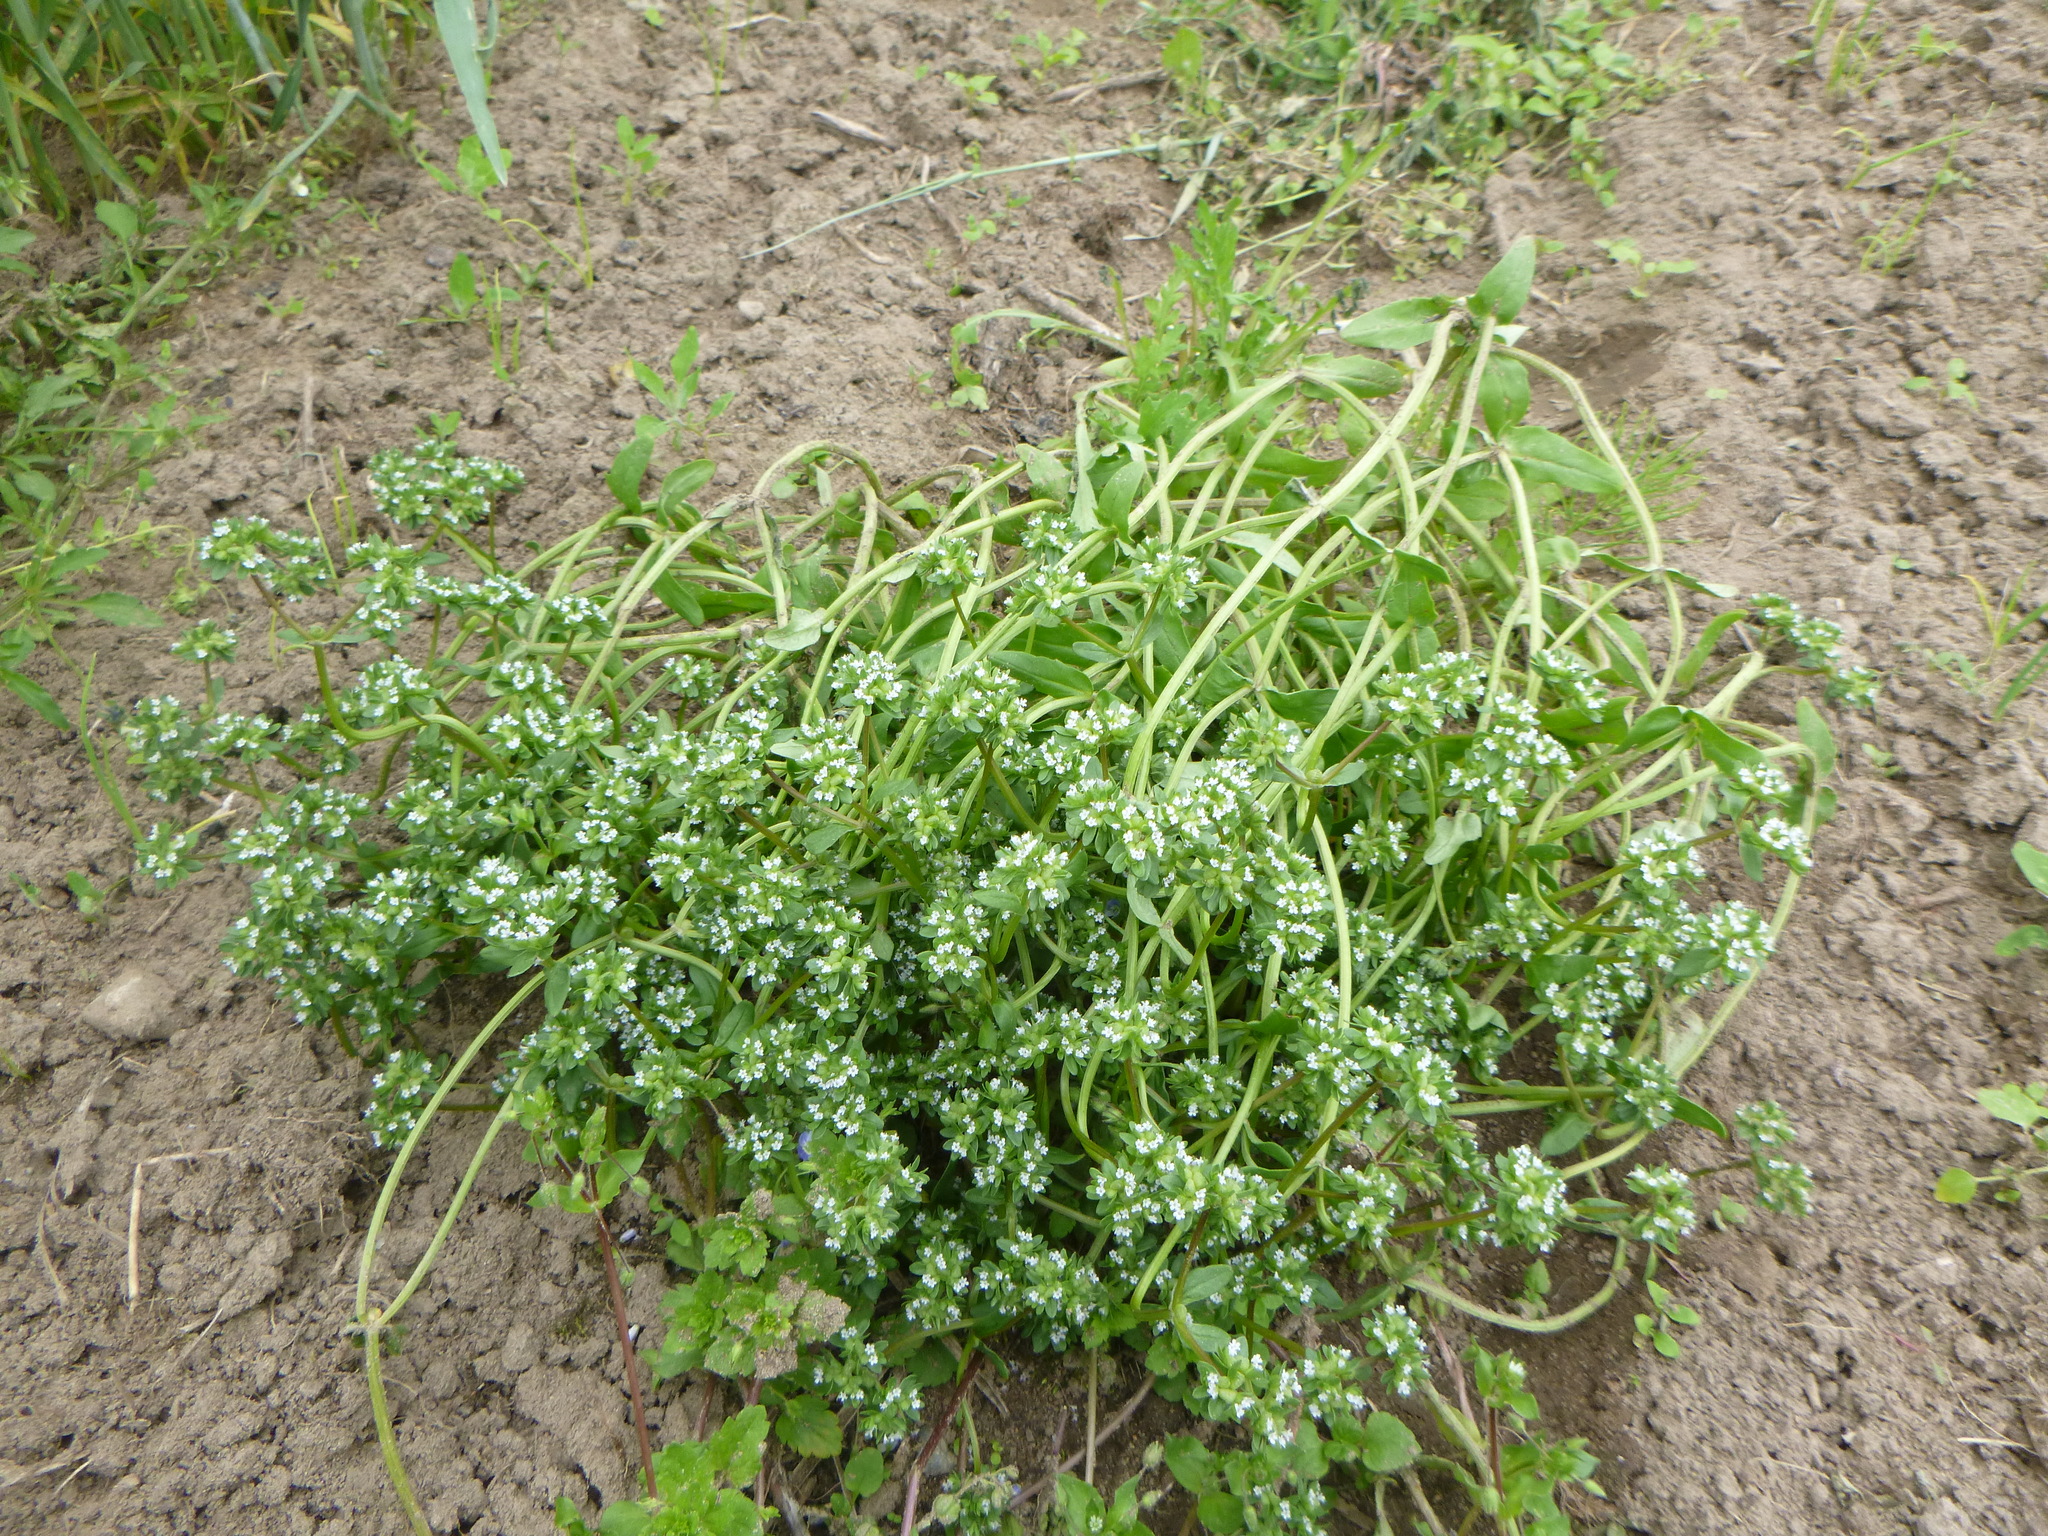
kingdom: Plantae
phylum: Tracheophyta
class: Magnoliopsida
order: Dipsacales
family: Caprifoliaceae
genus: Valerianella
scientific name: Valerianella locusta
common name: Common cornsalad
